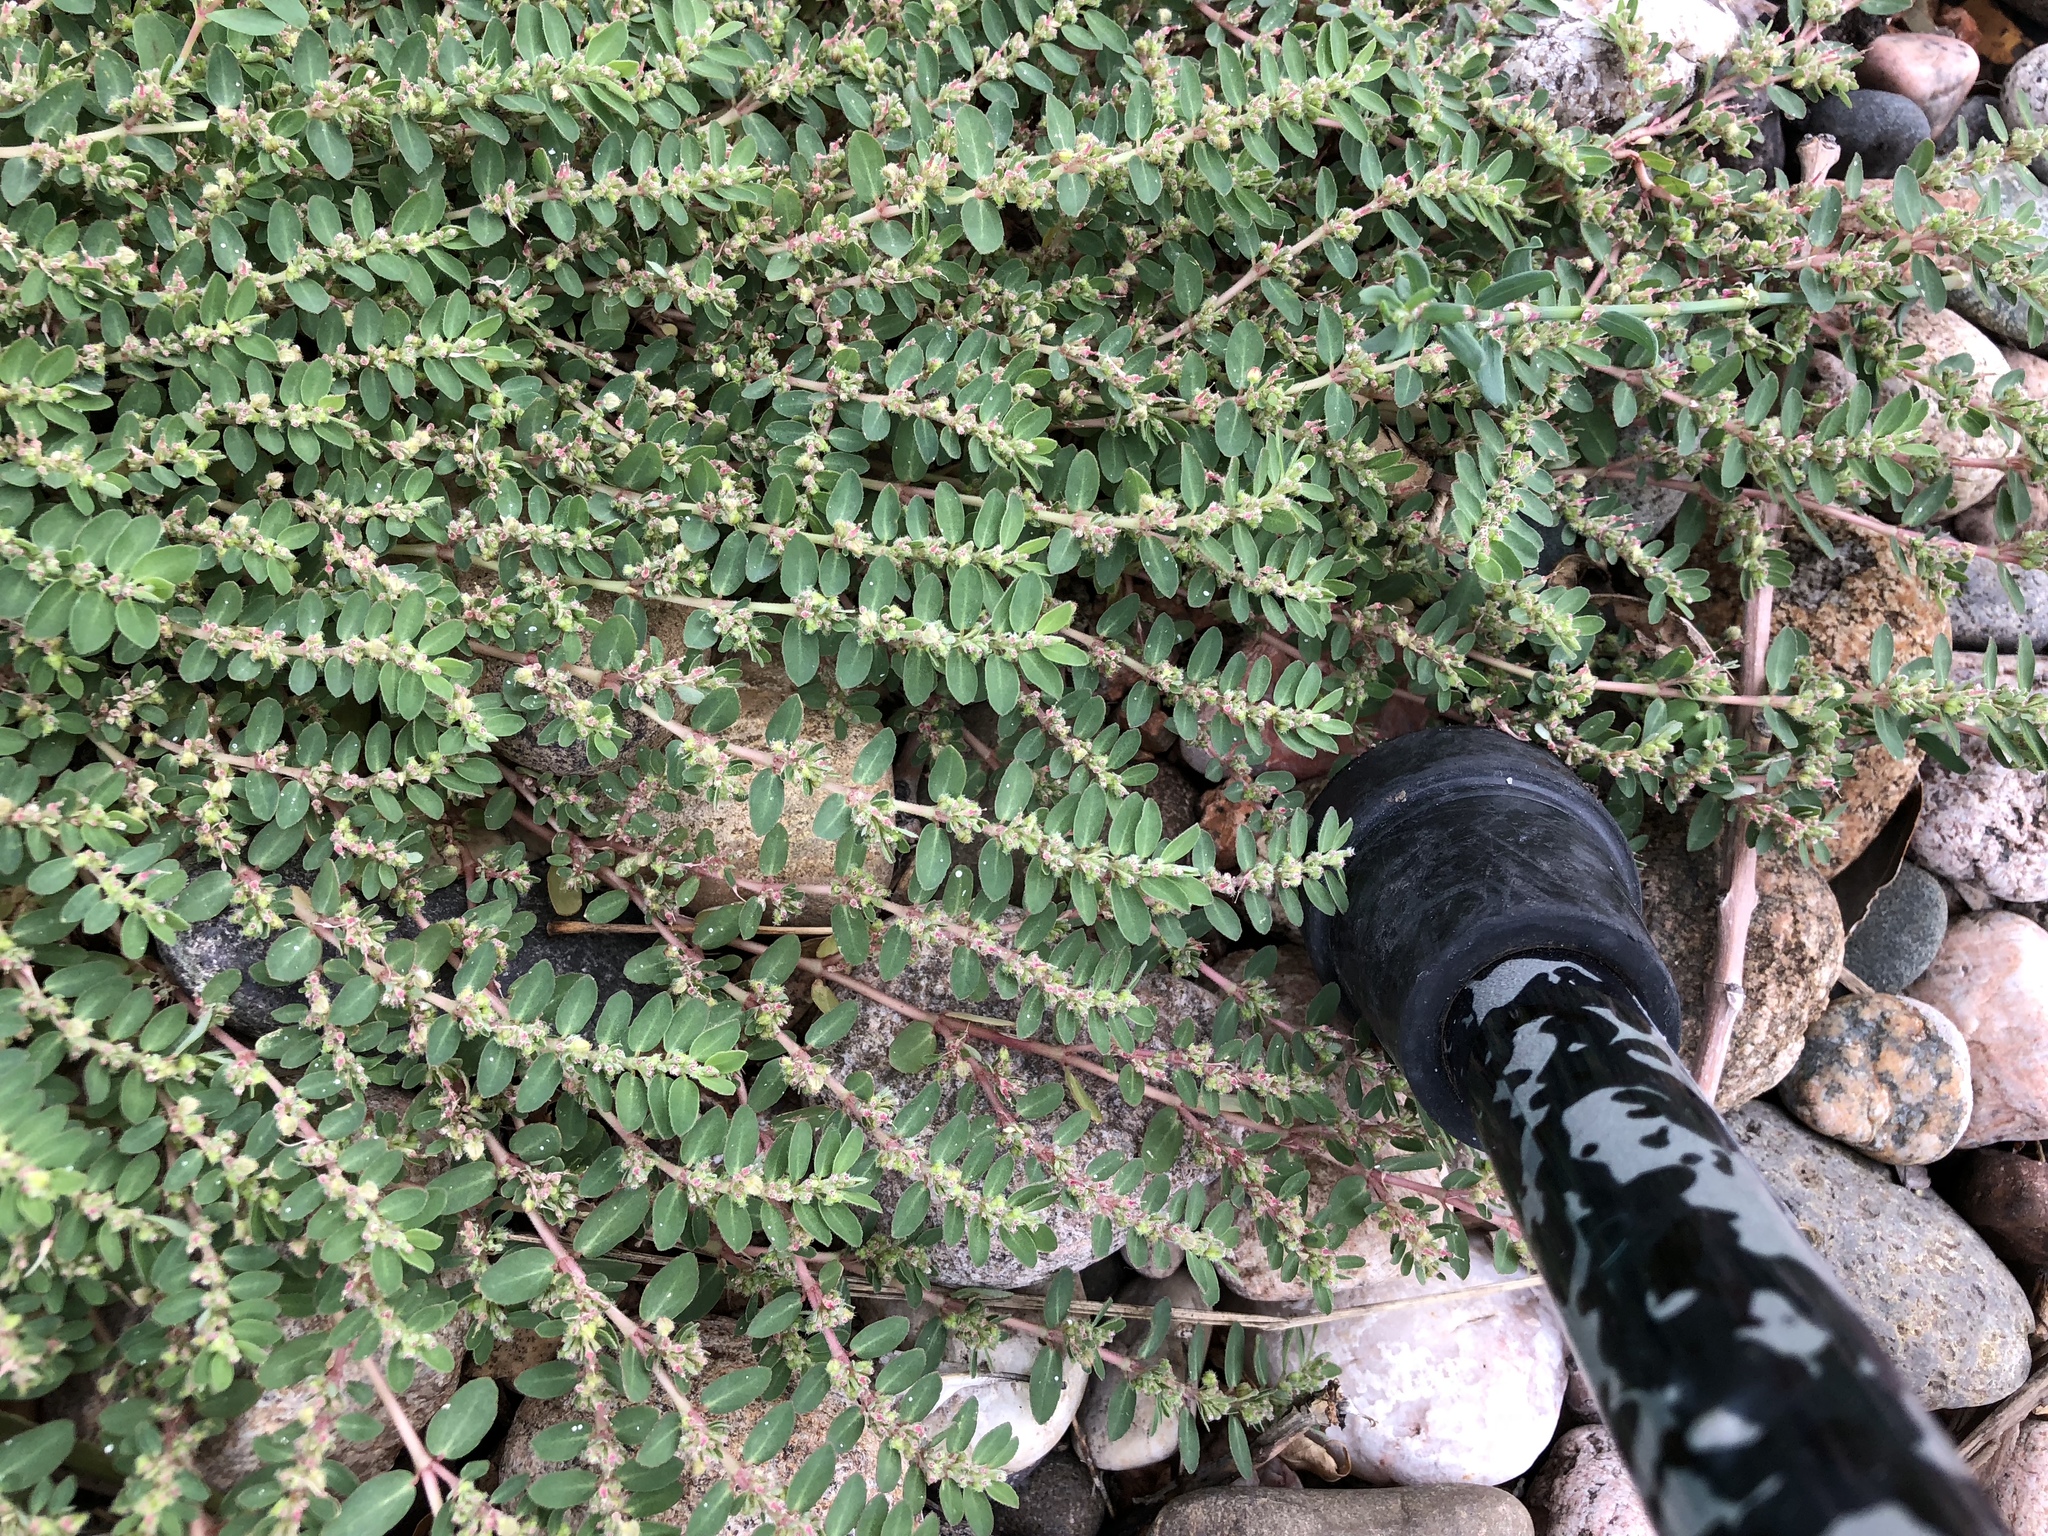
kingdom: Plantae
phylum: Tracheophyta
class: Magnoliopsida
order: Malpighiales
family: Euphorbiaceae
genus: Euphorbia
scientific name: Euphorbia prostrata
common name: Prostrate sandmat
